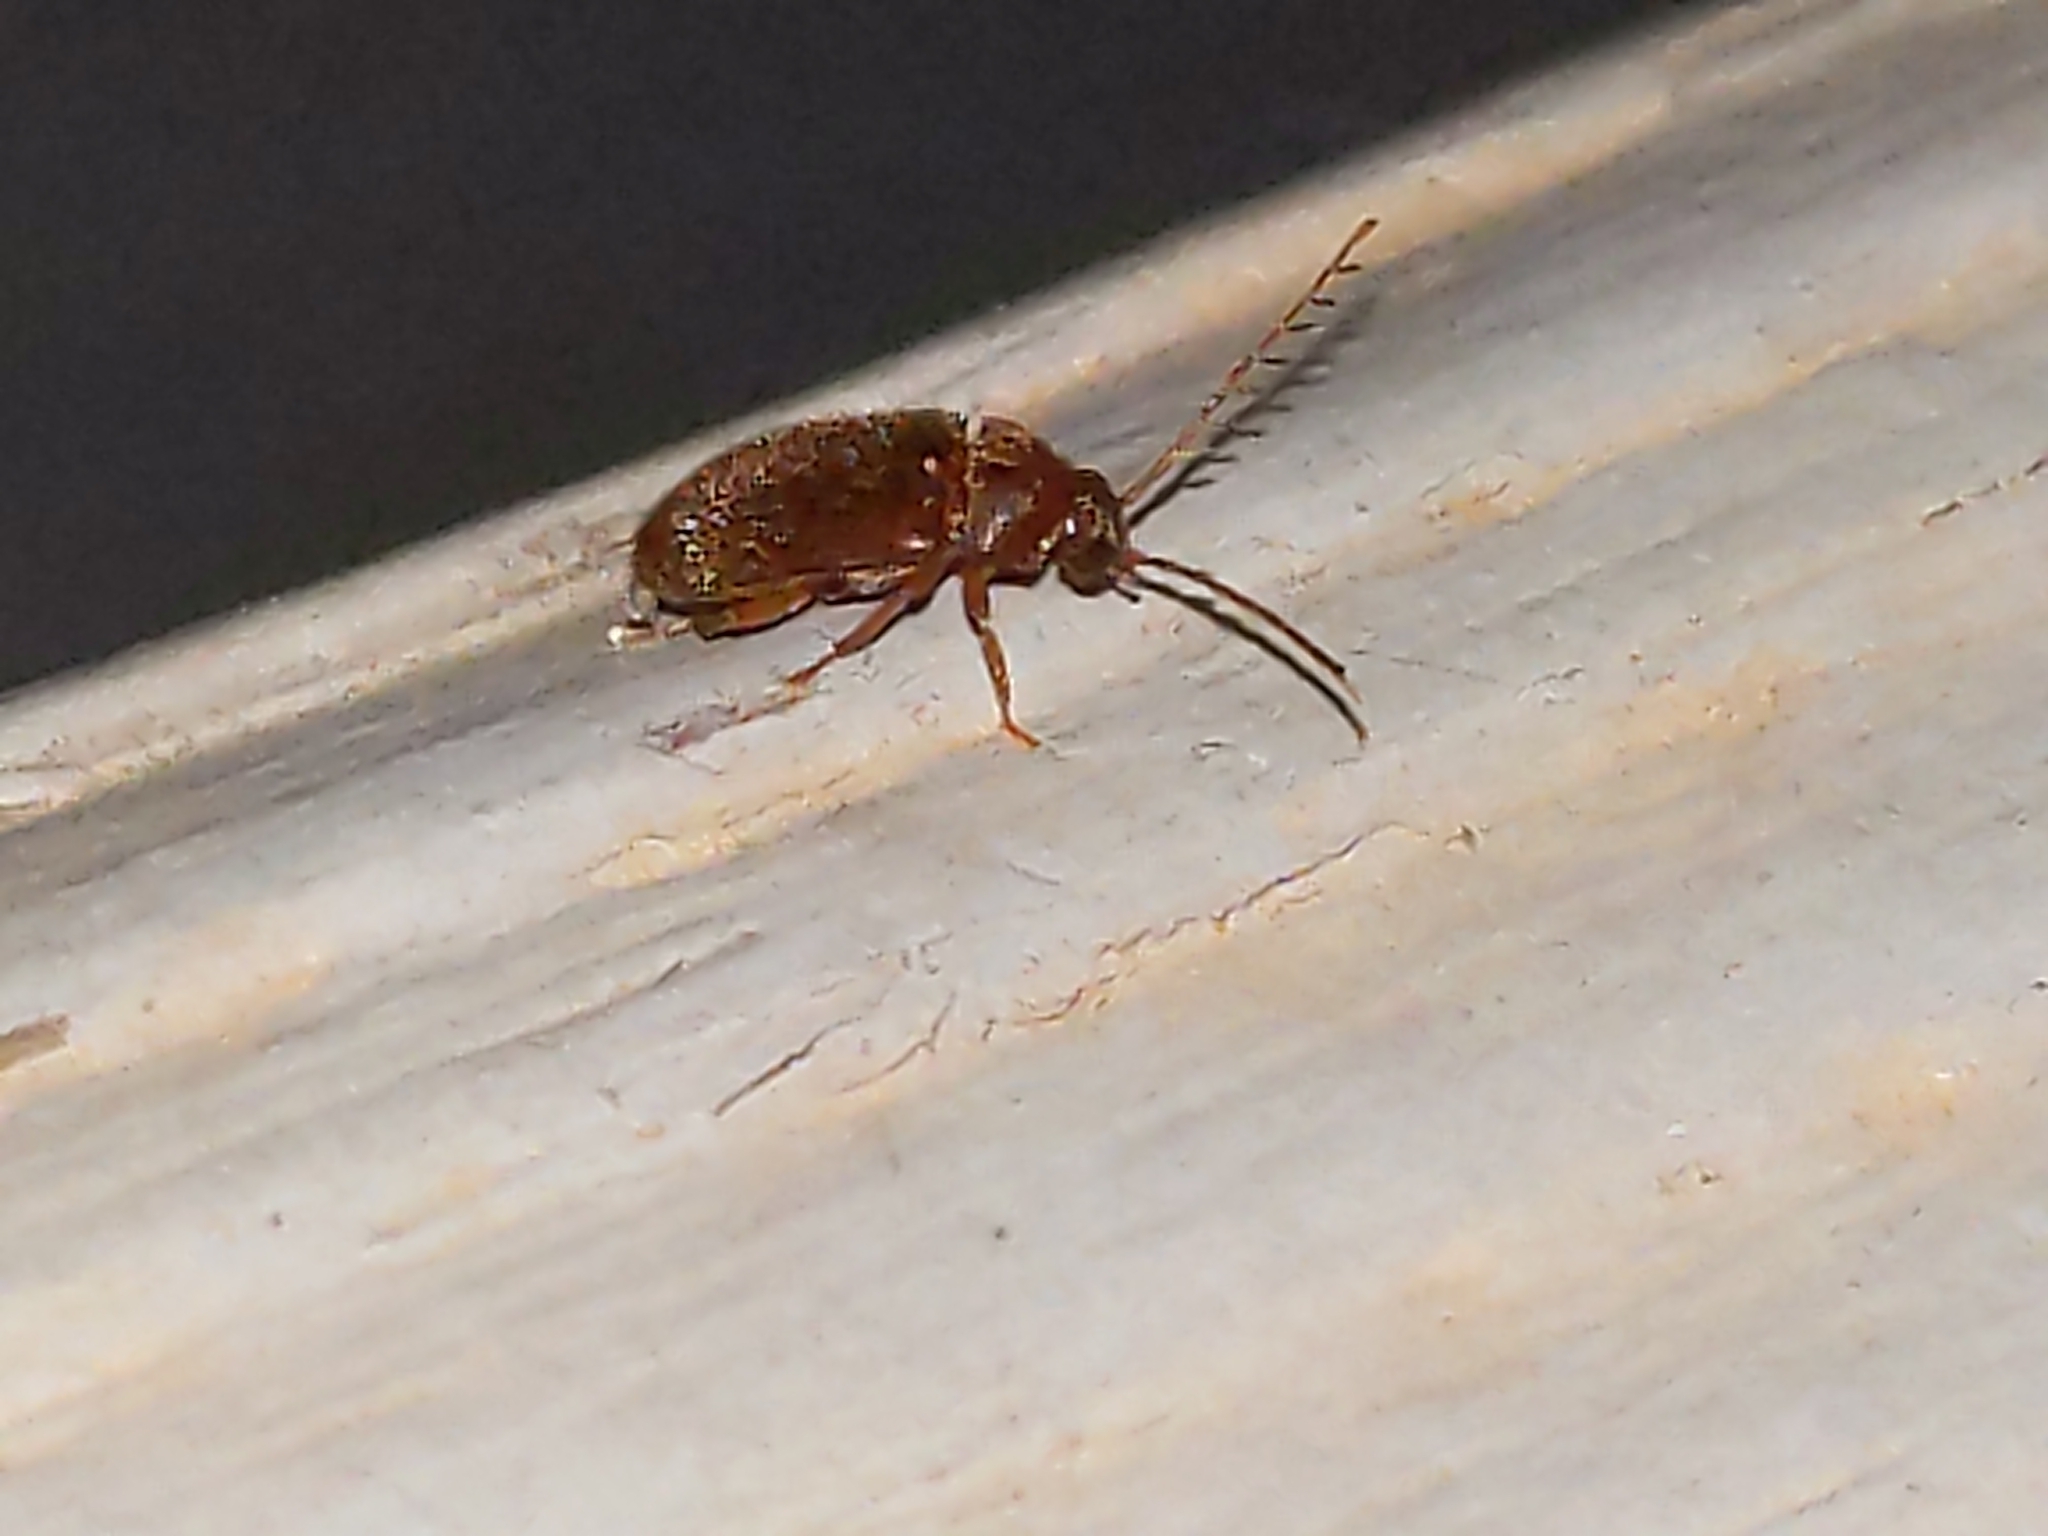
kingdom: Animalia
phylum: Arthropoda
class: Insecta
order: Coleoptera
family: Ptilodactylidae
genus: Ptilodactyla
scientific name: Ptilodactyla
